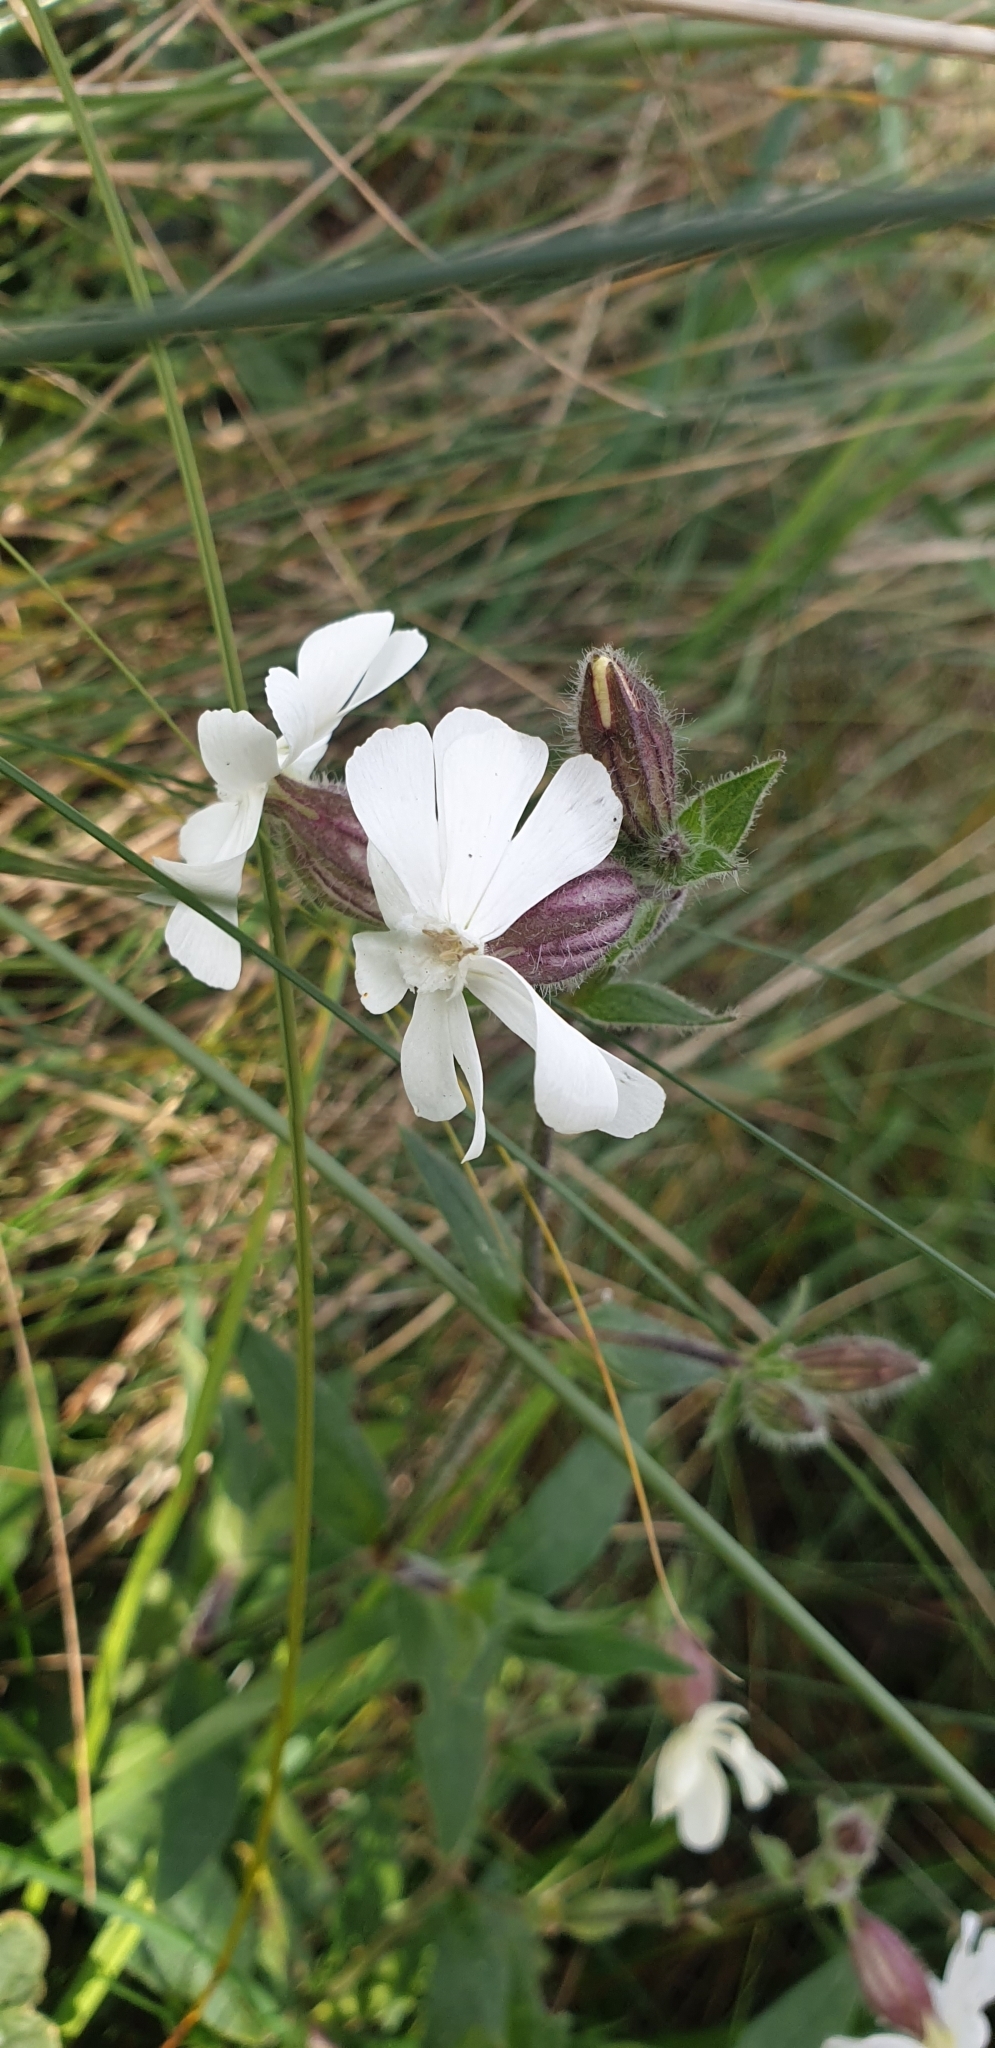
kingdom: Plantae
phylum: Tracheophyta
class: Magnoliopsida
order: Caryophyllales
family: Caryophyllaceae
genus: Silene
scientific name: Silene latifolia
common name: White campion
